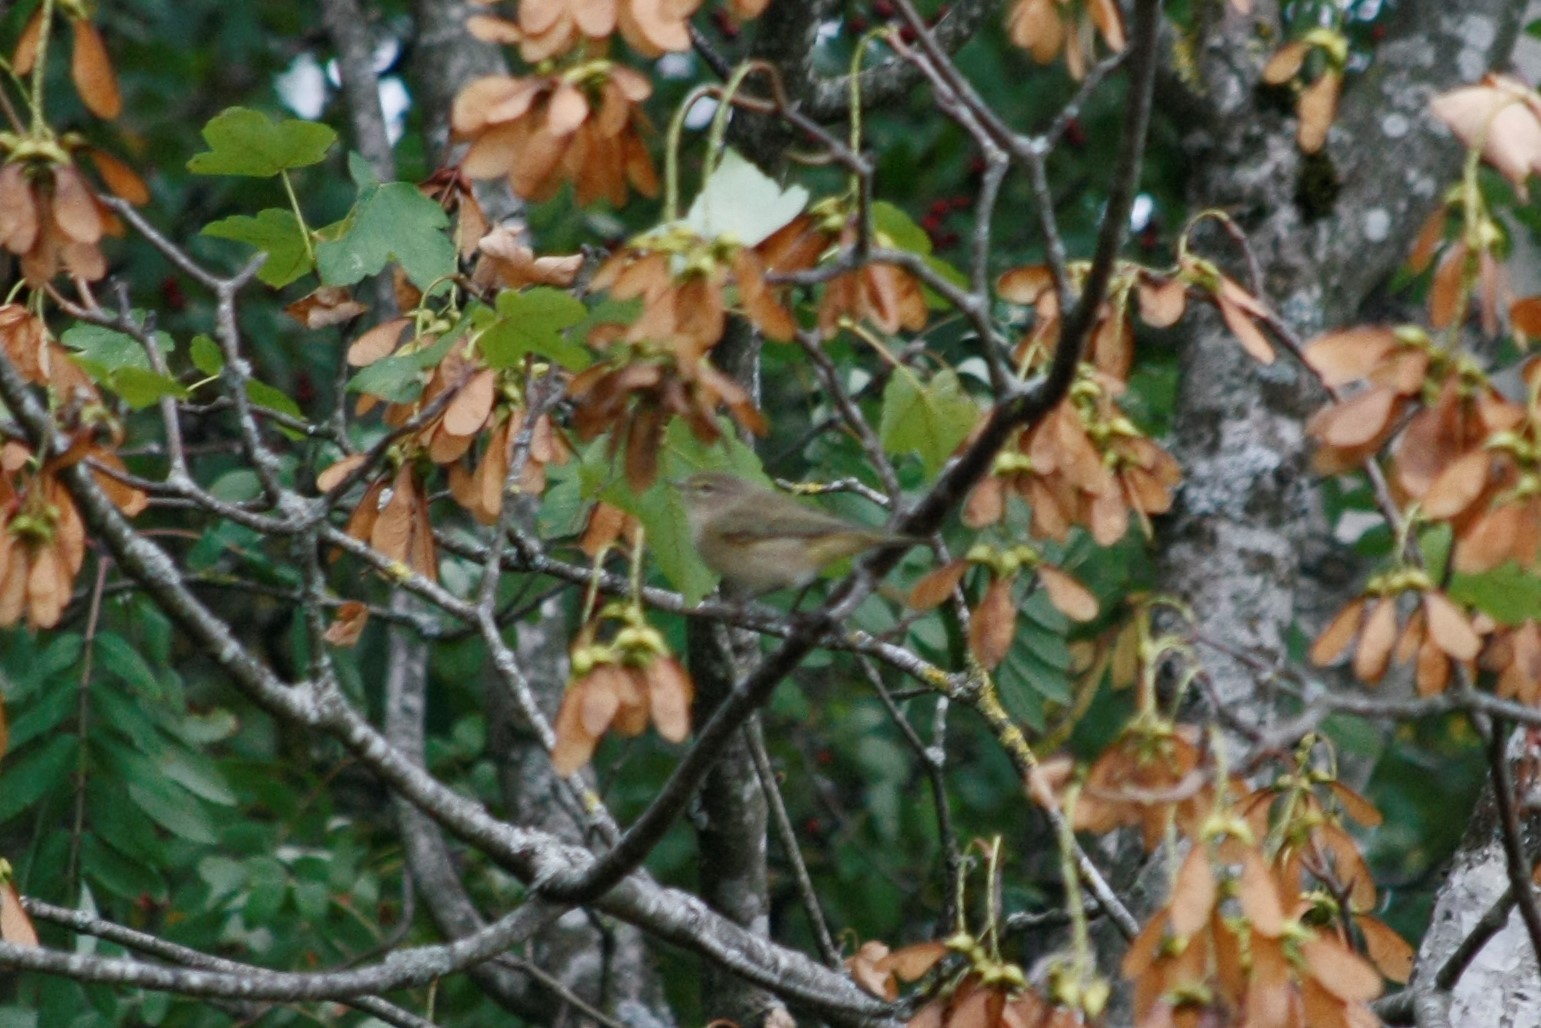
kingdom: Animalia
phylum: Chordata
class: Aves
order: Passeriformes
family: Phylloscopidae
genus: Phylloscopus
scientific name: Phylloscopus collybita
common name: Common chiffchaff
